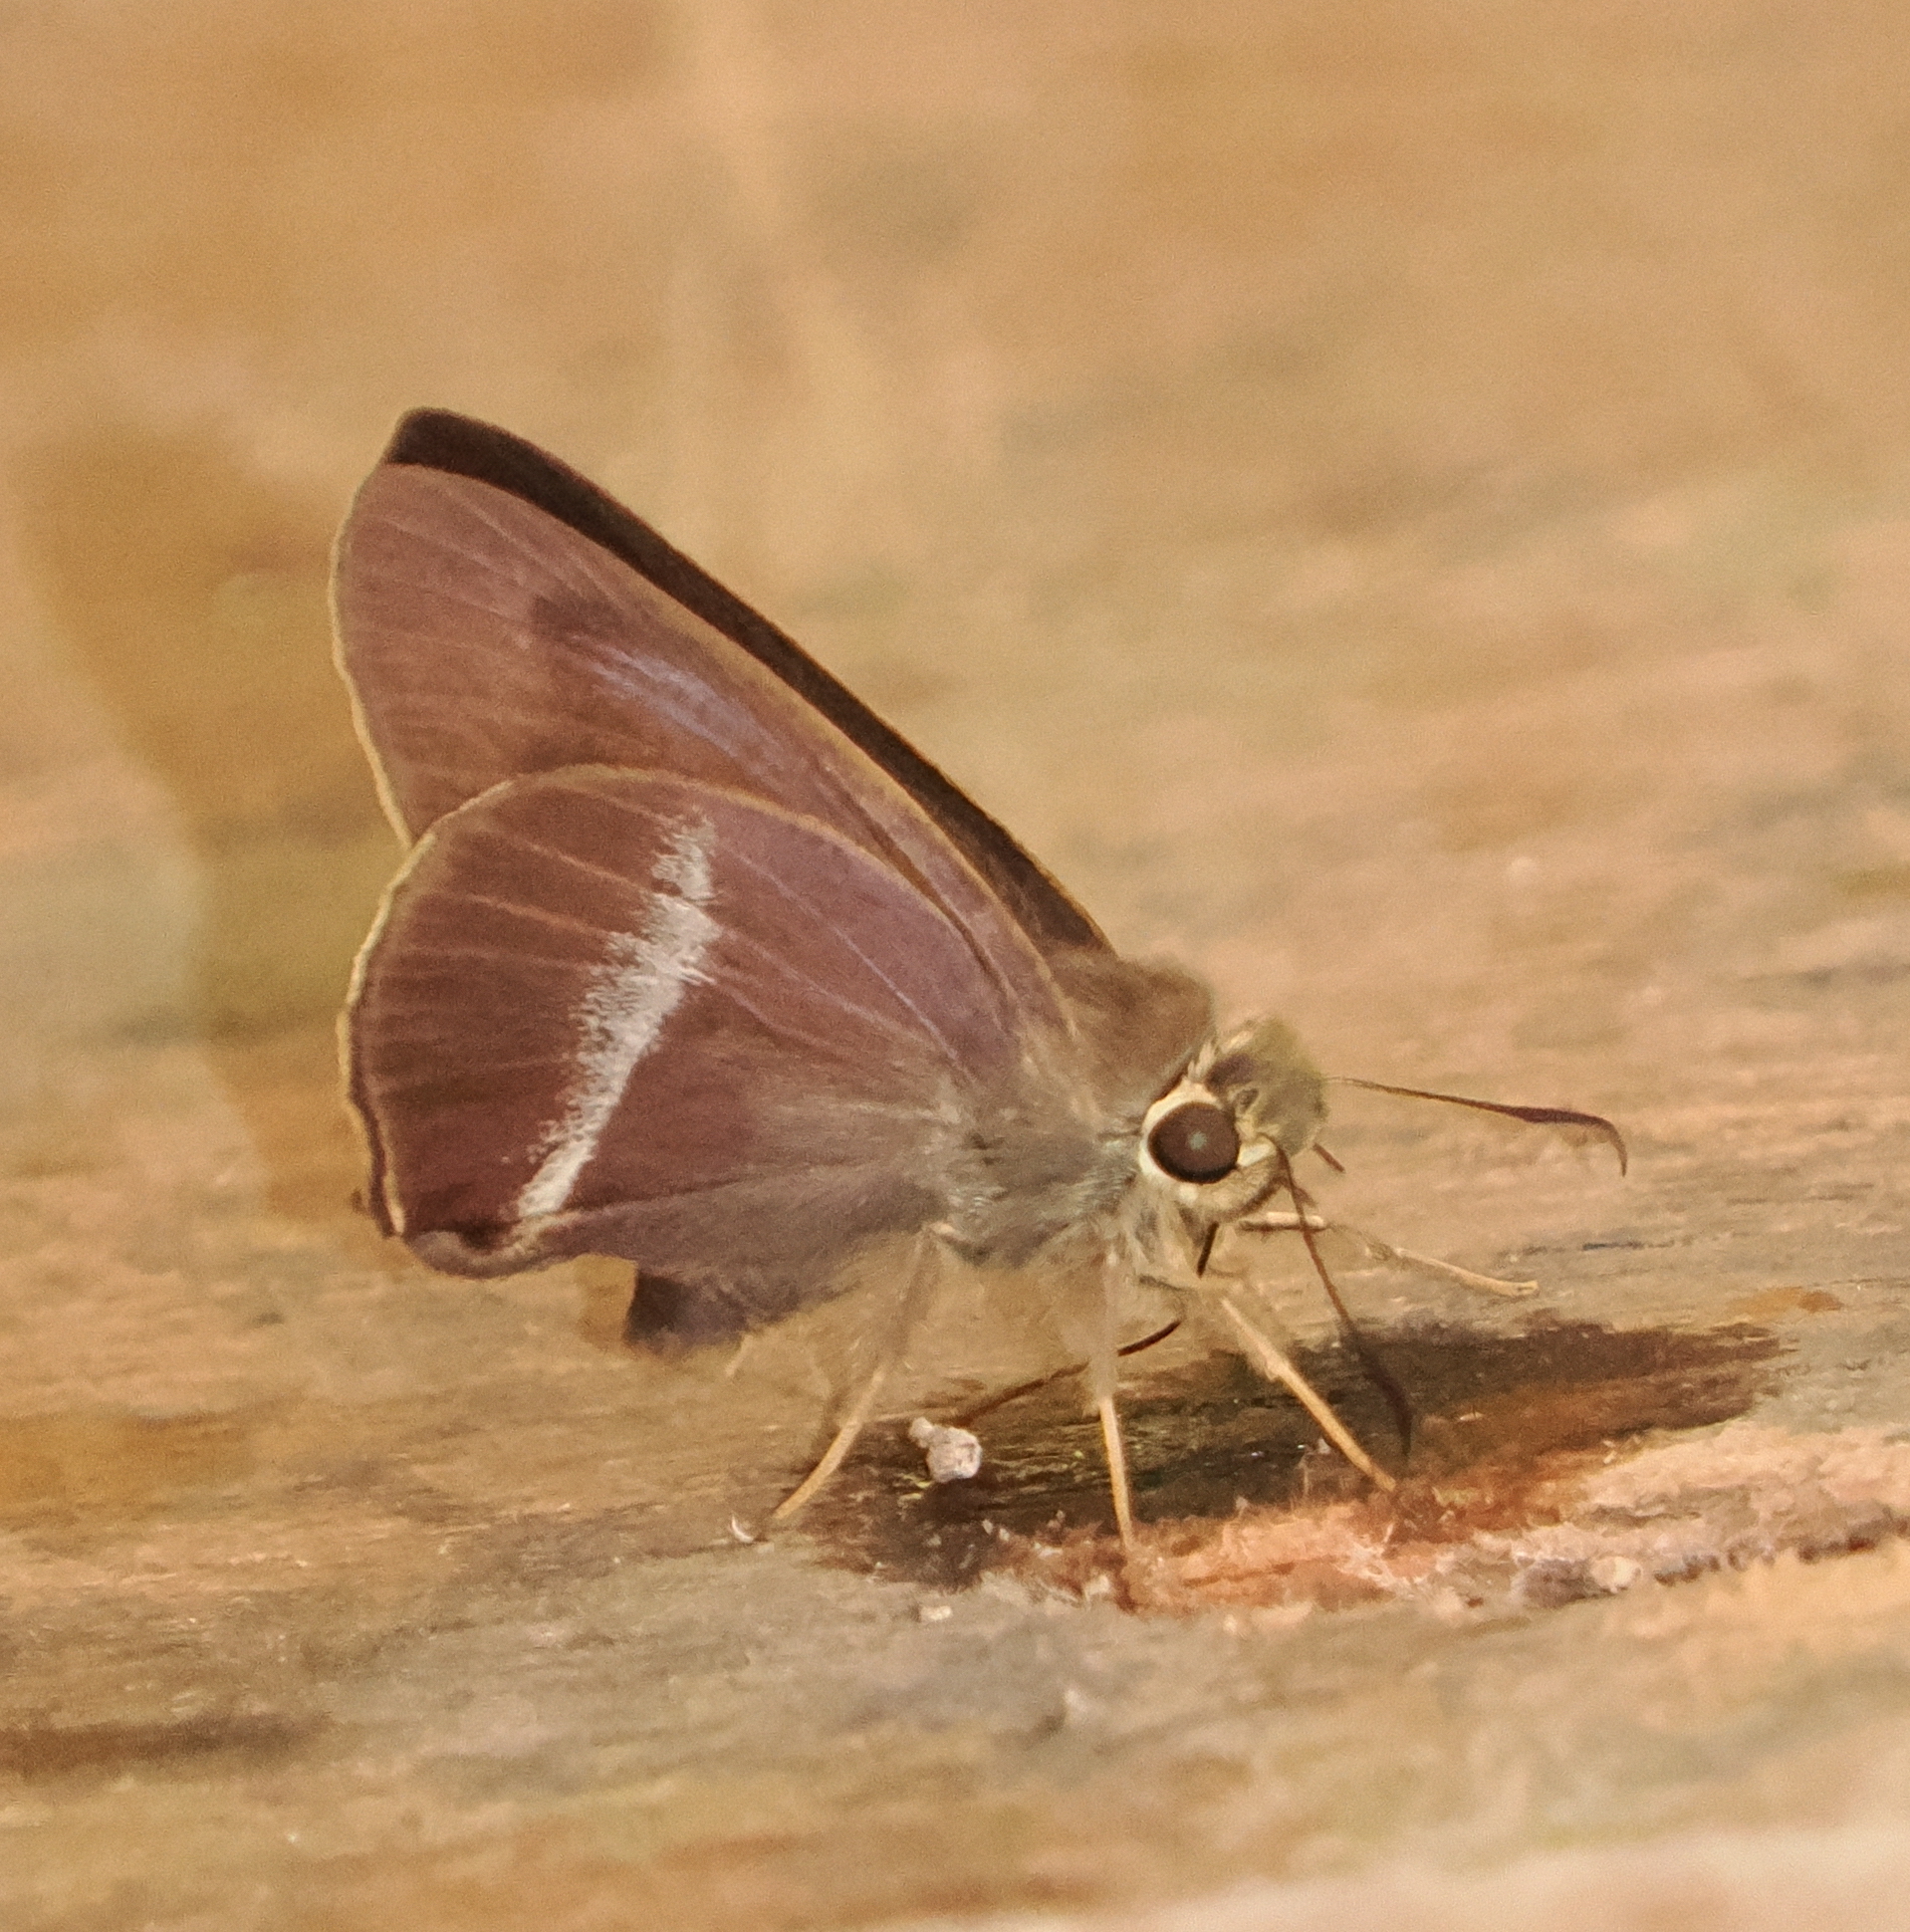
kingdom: Animalia
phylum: Arthropoda
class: Insecta
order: Lepidoptera
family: Hesperiidae
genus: Hasora
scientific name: Hasora chromus
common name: Common banded awl
